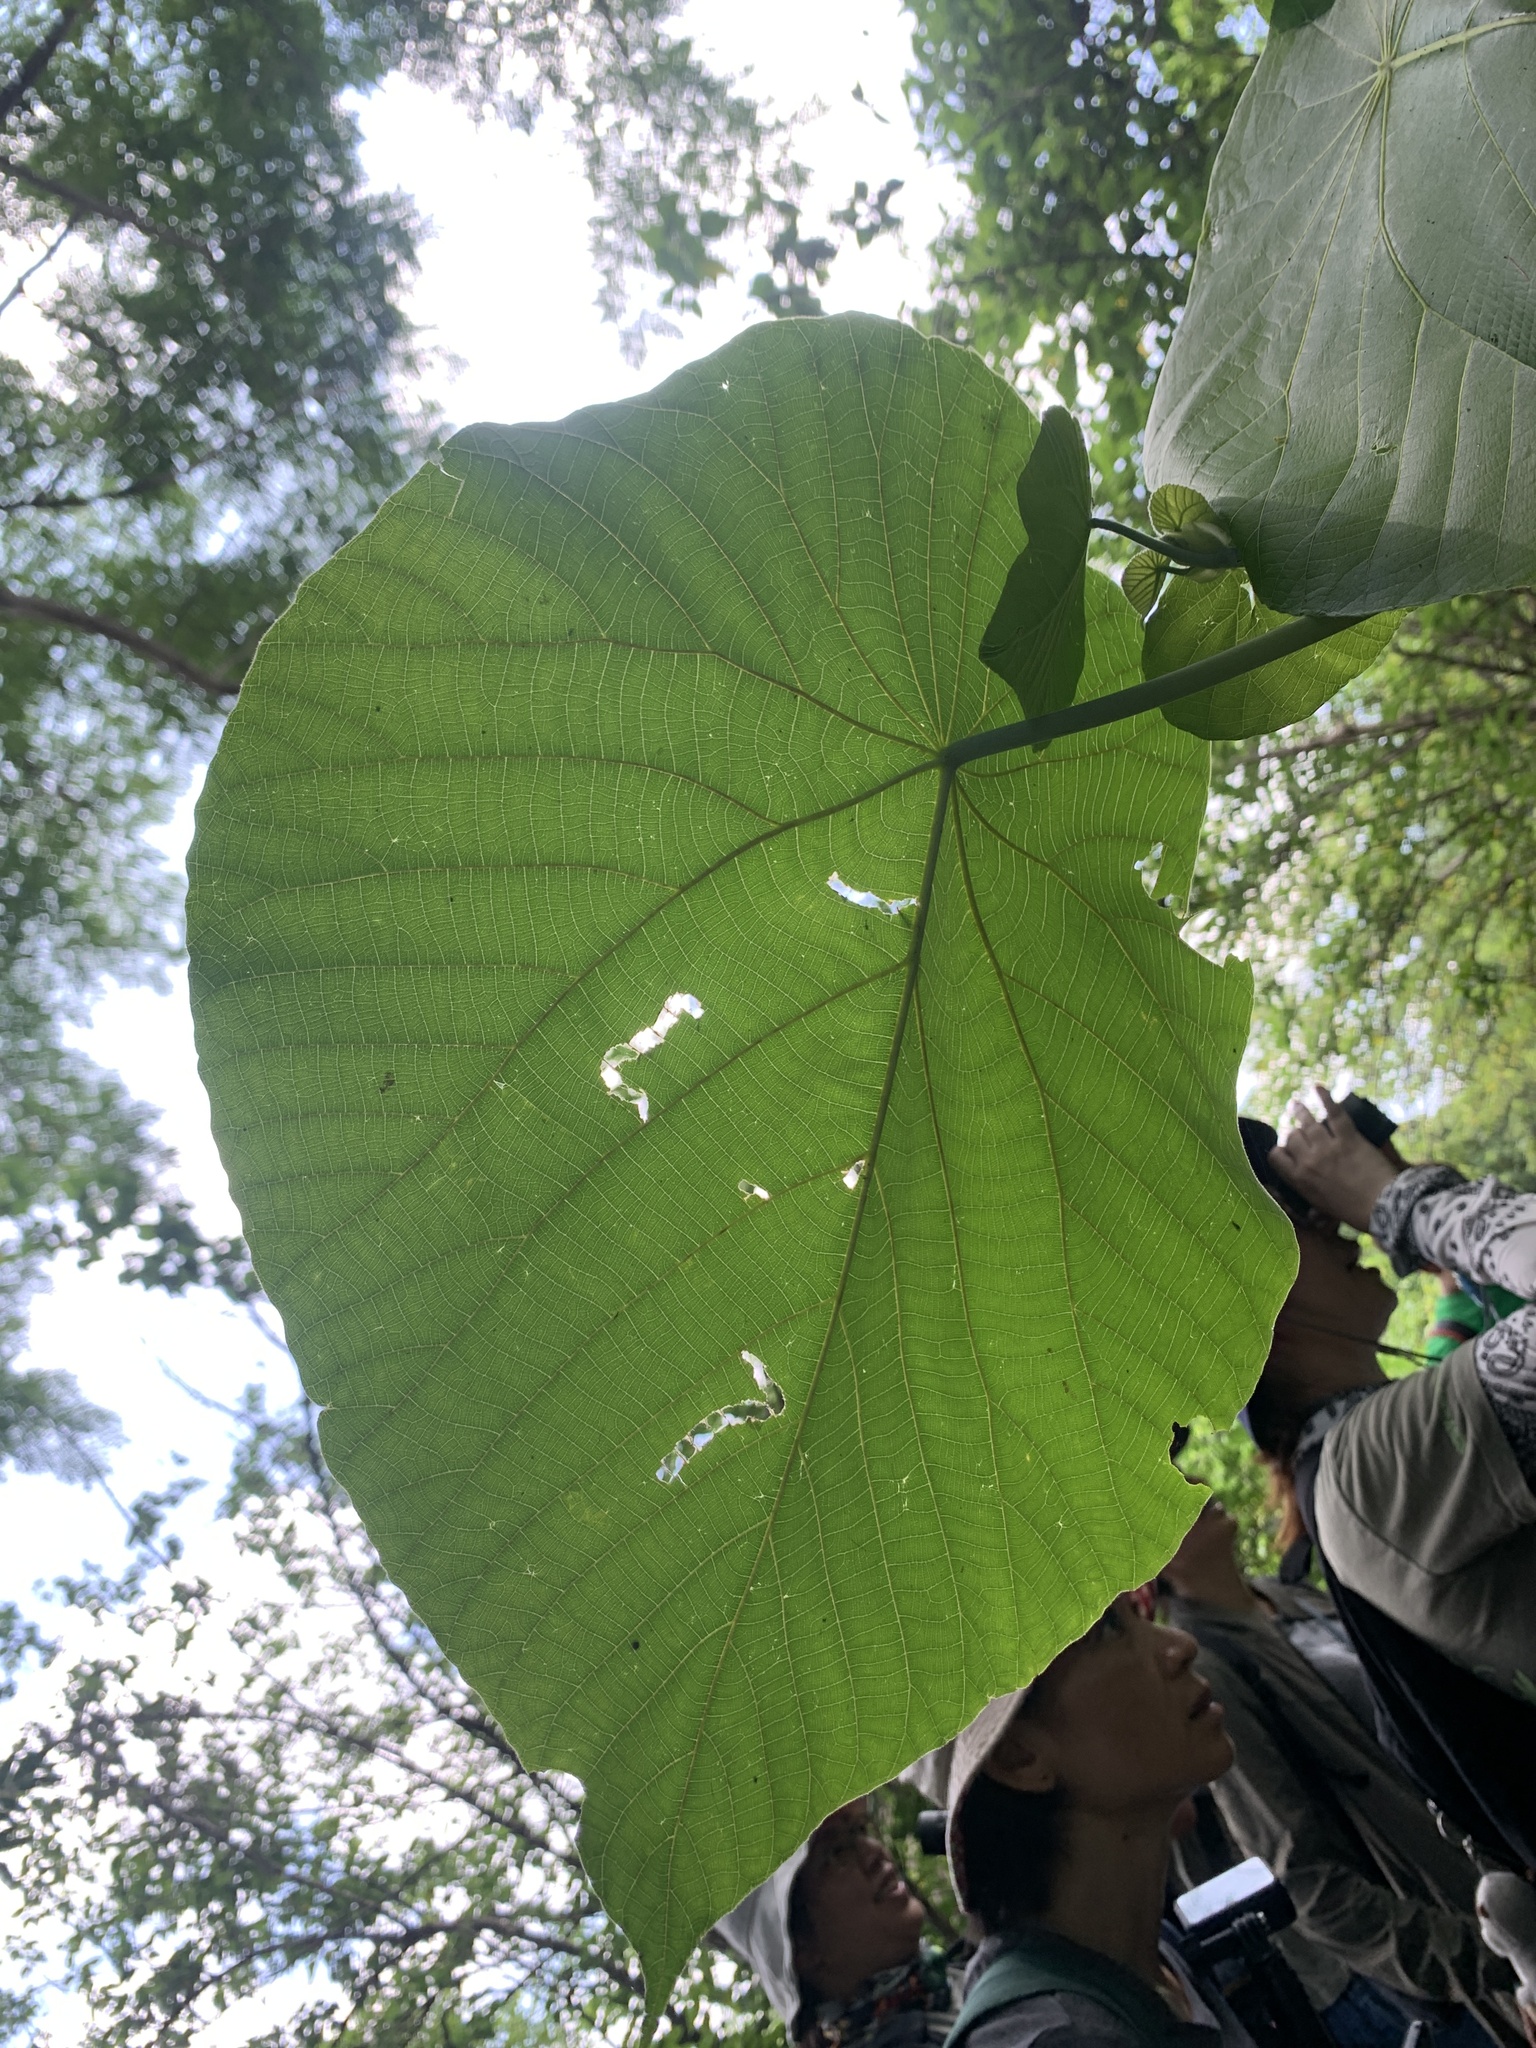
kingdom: Plantae
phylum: Tracheophyta
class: Magnoliopsida
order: Malpighiales
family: Euphorbiaceae
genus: Macaranga
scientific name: Macaranga tanarius
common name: Parasol leaf tree
